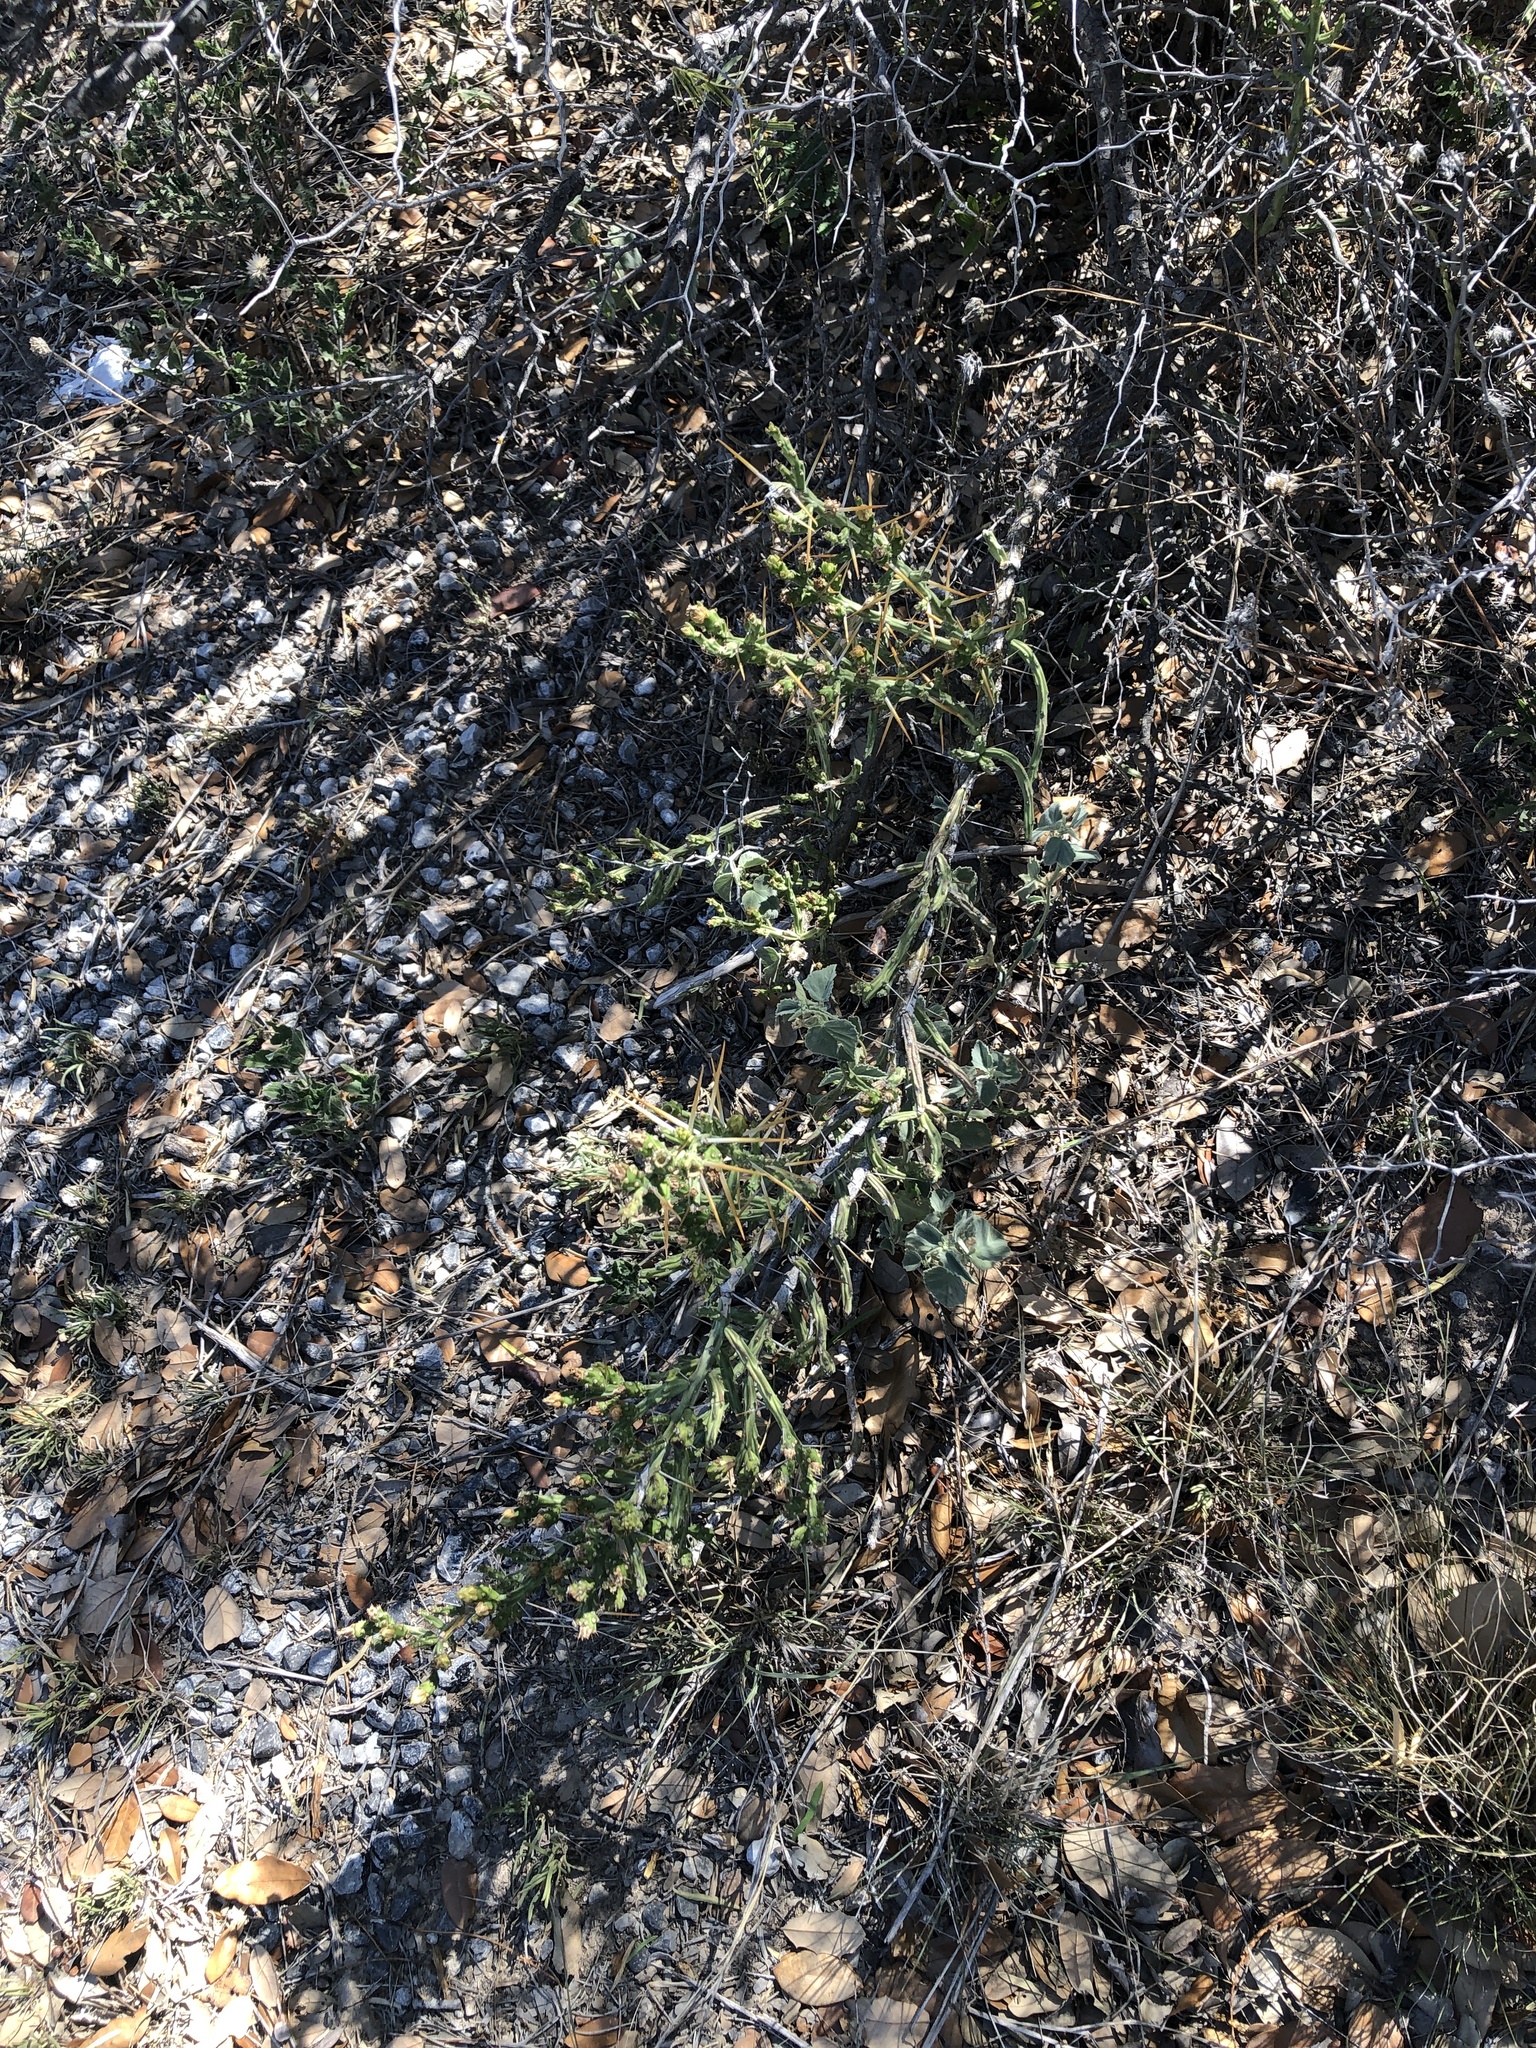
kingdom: Plantae
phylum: Tracheophyta
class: Magnoliopsida
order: Caryophyllales
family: Cactaceae
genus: Cylindropuntia
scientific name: Cylindropuntia leptocaulis
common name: Christmas cactus
